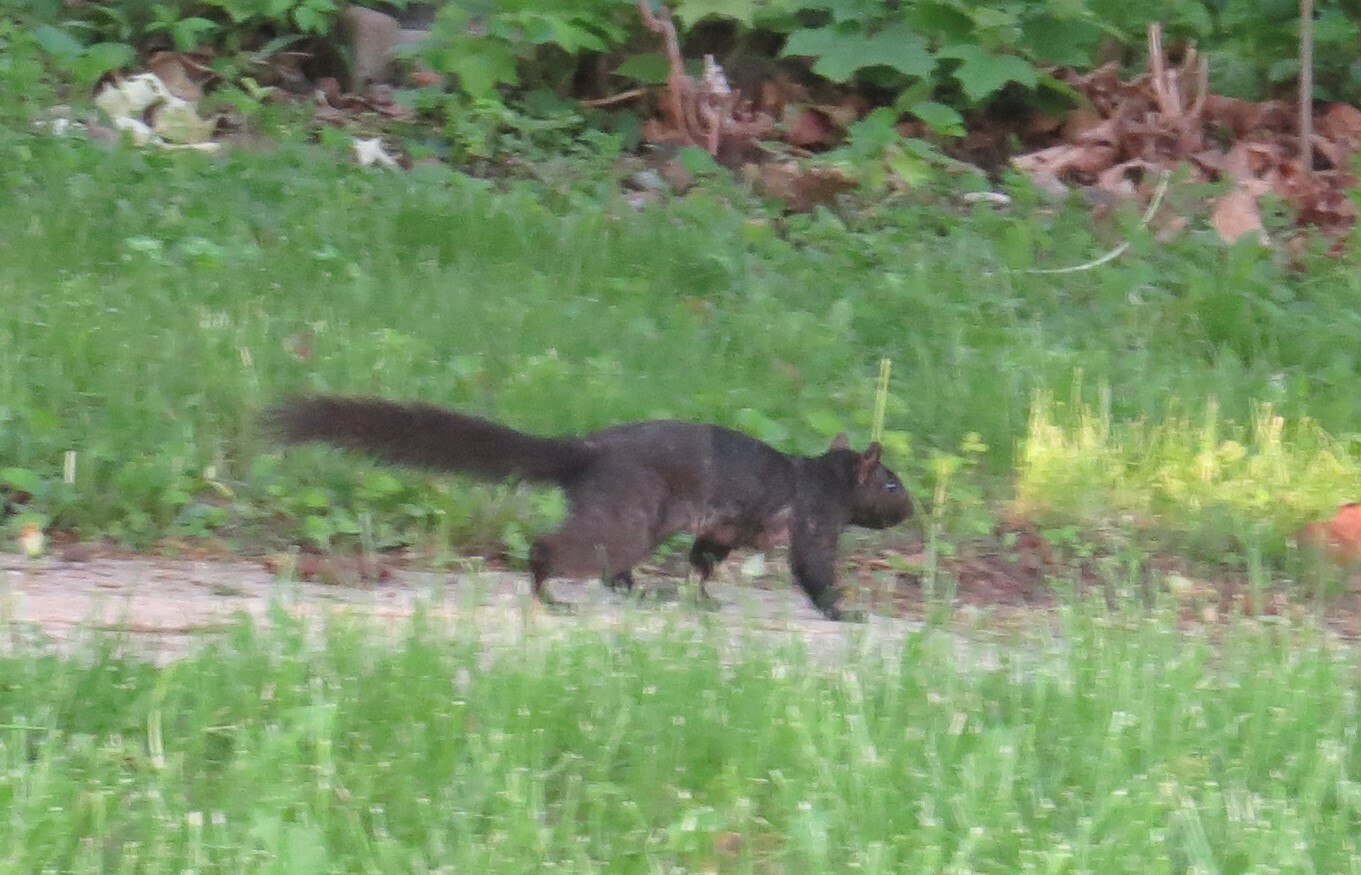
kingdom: Animalia
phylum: Chordata
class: Mammalia
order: Rodentia
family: Sciuridae
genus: Sciurus
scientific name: Sciurus carolinensis
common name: Eastern gray squirrel
